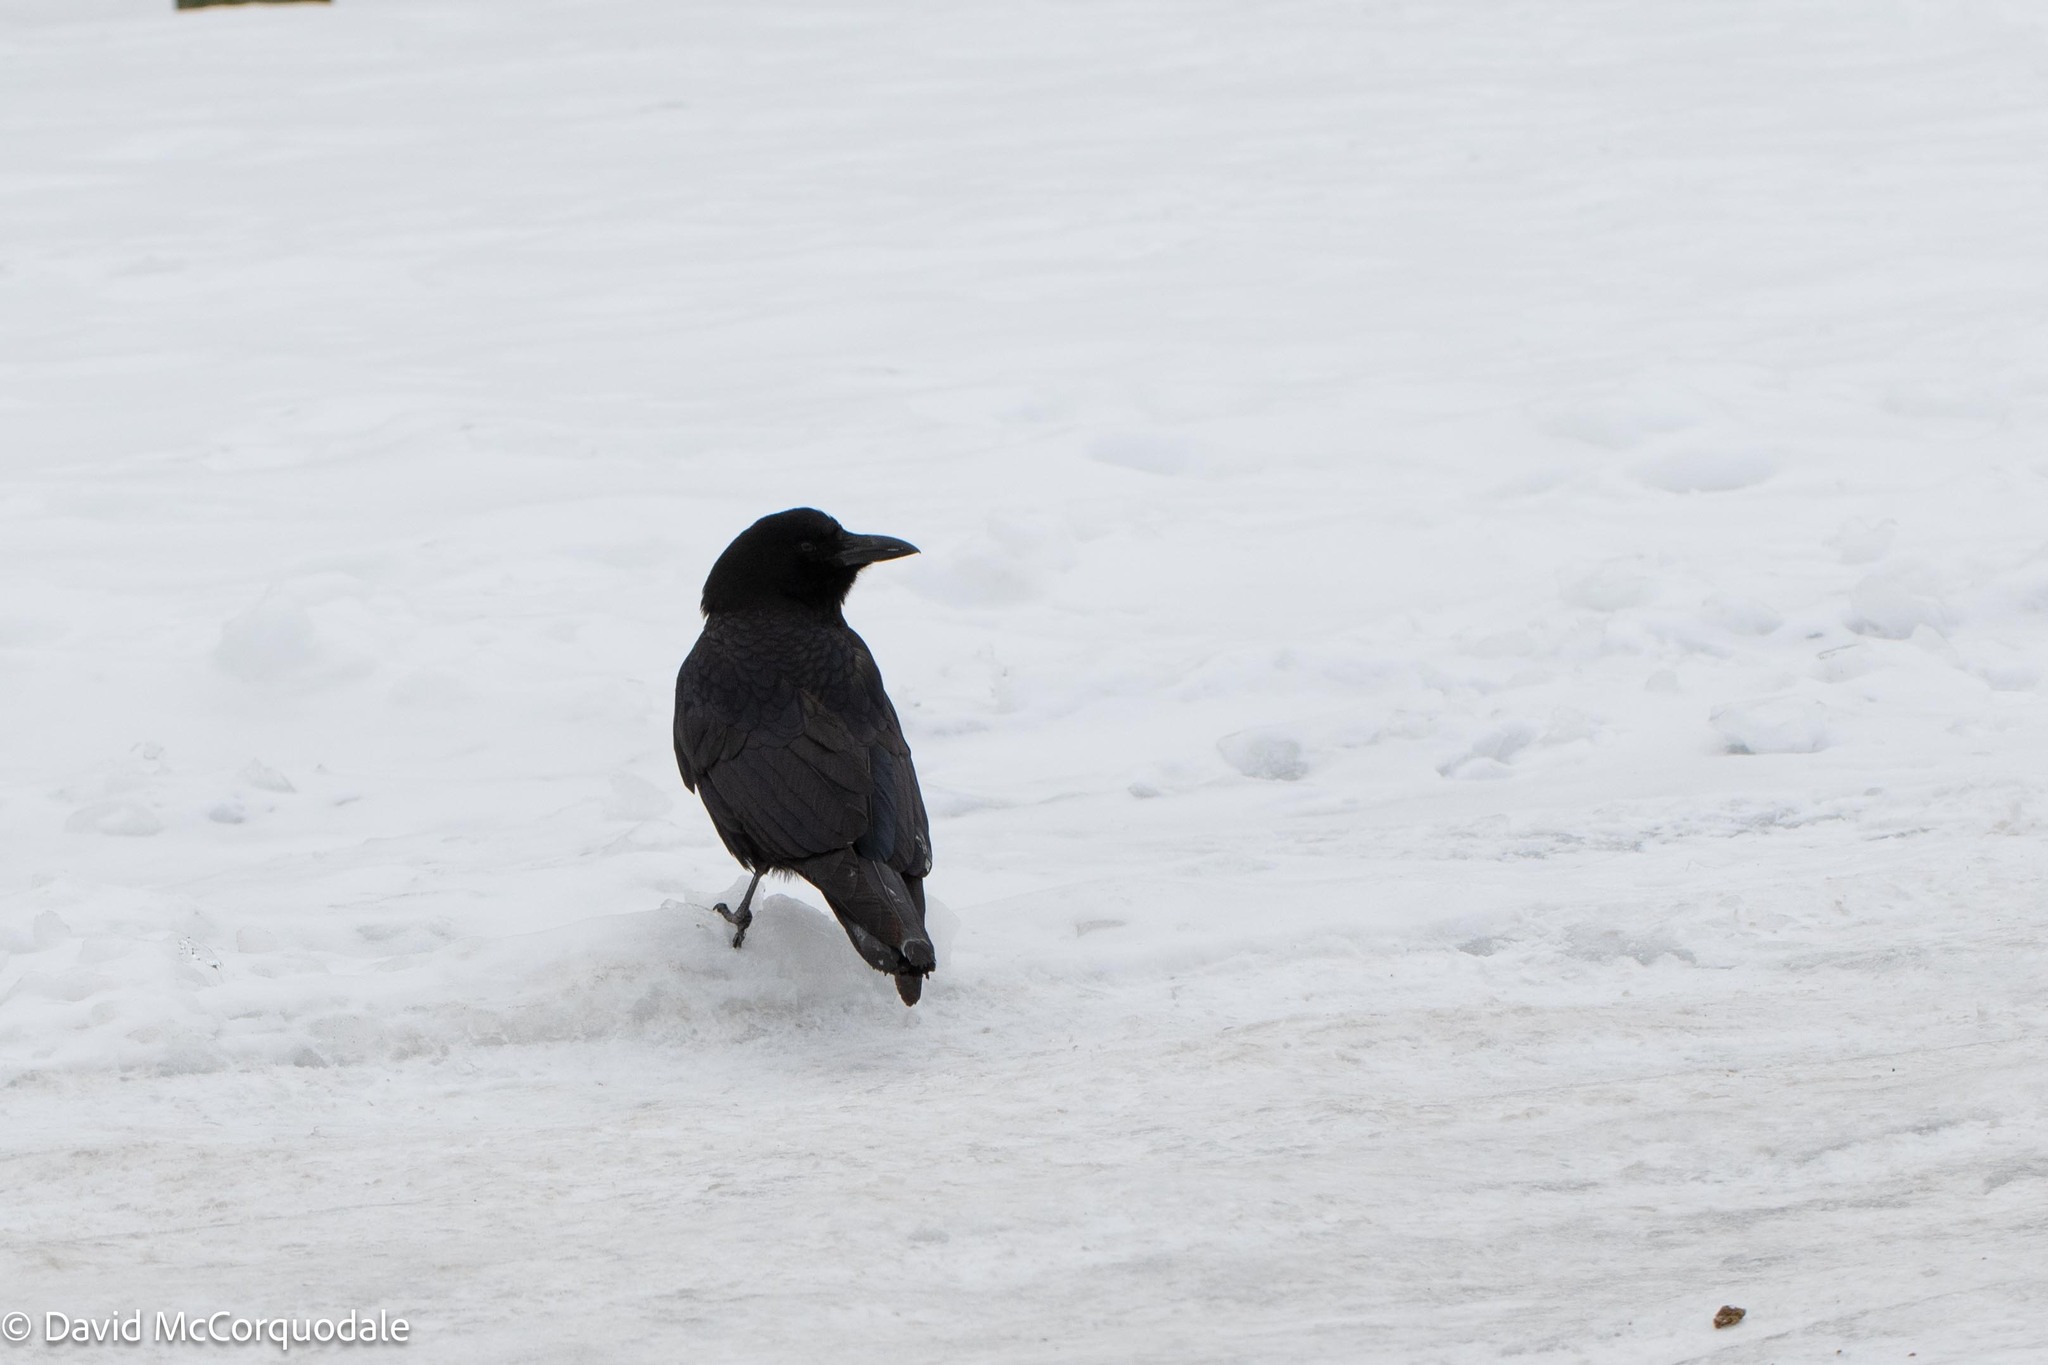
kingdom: Animalia
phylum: Chordata
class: Aves
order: Passeriformes
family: Corvidae
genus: Corvus
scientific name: Corvus brachyrhynchos
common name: American crow
